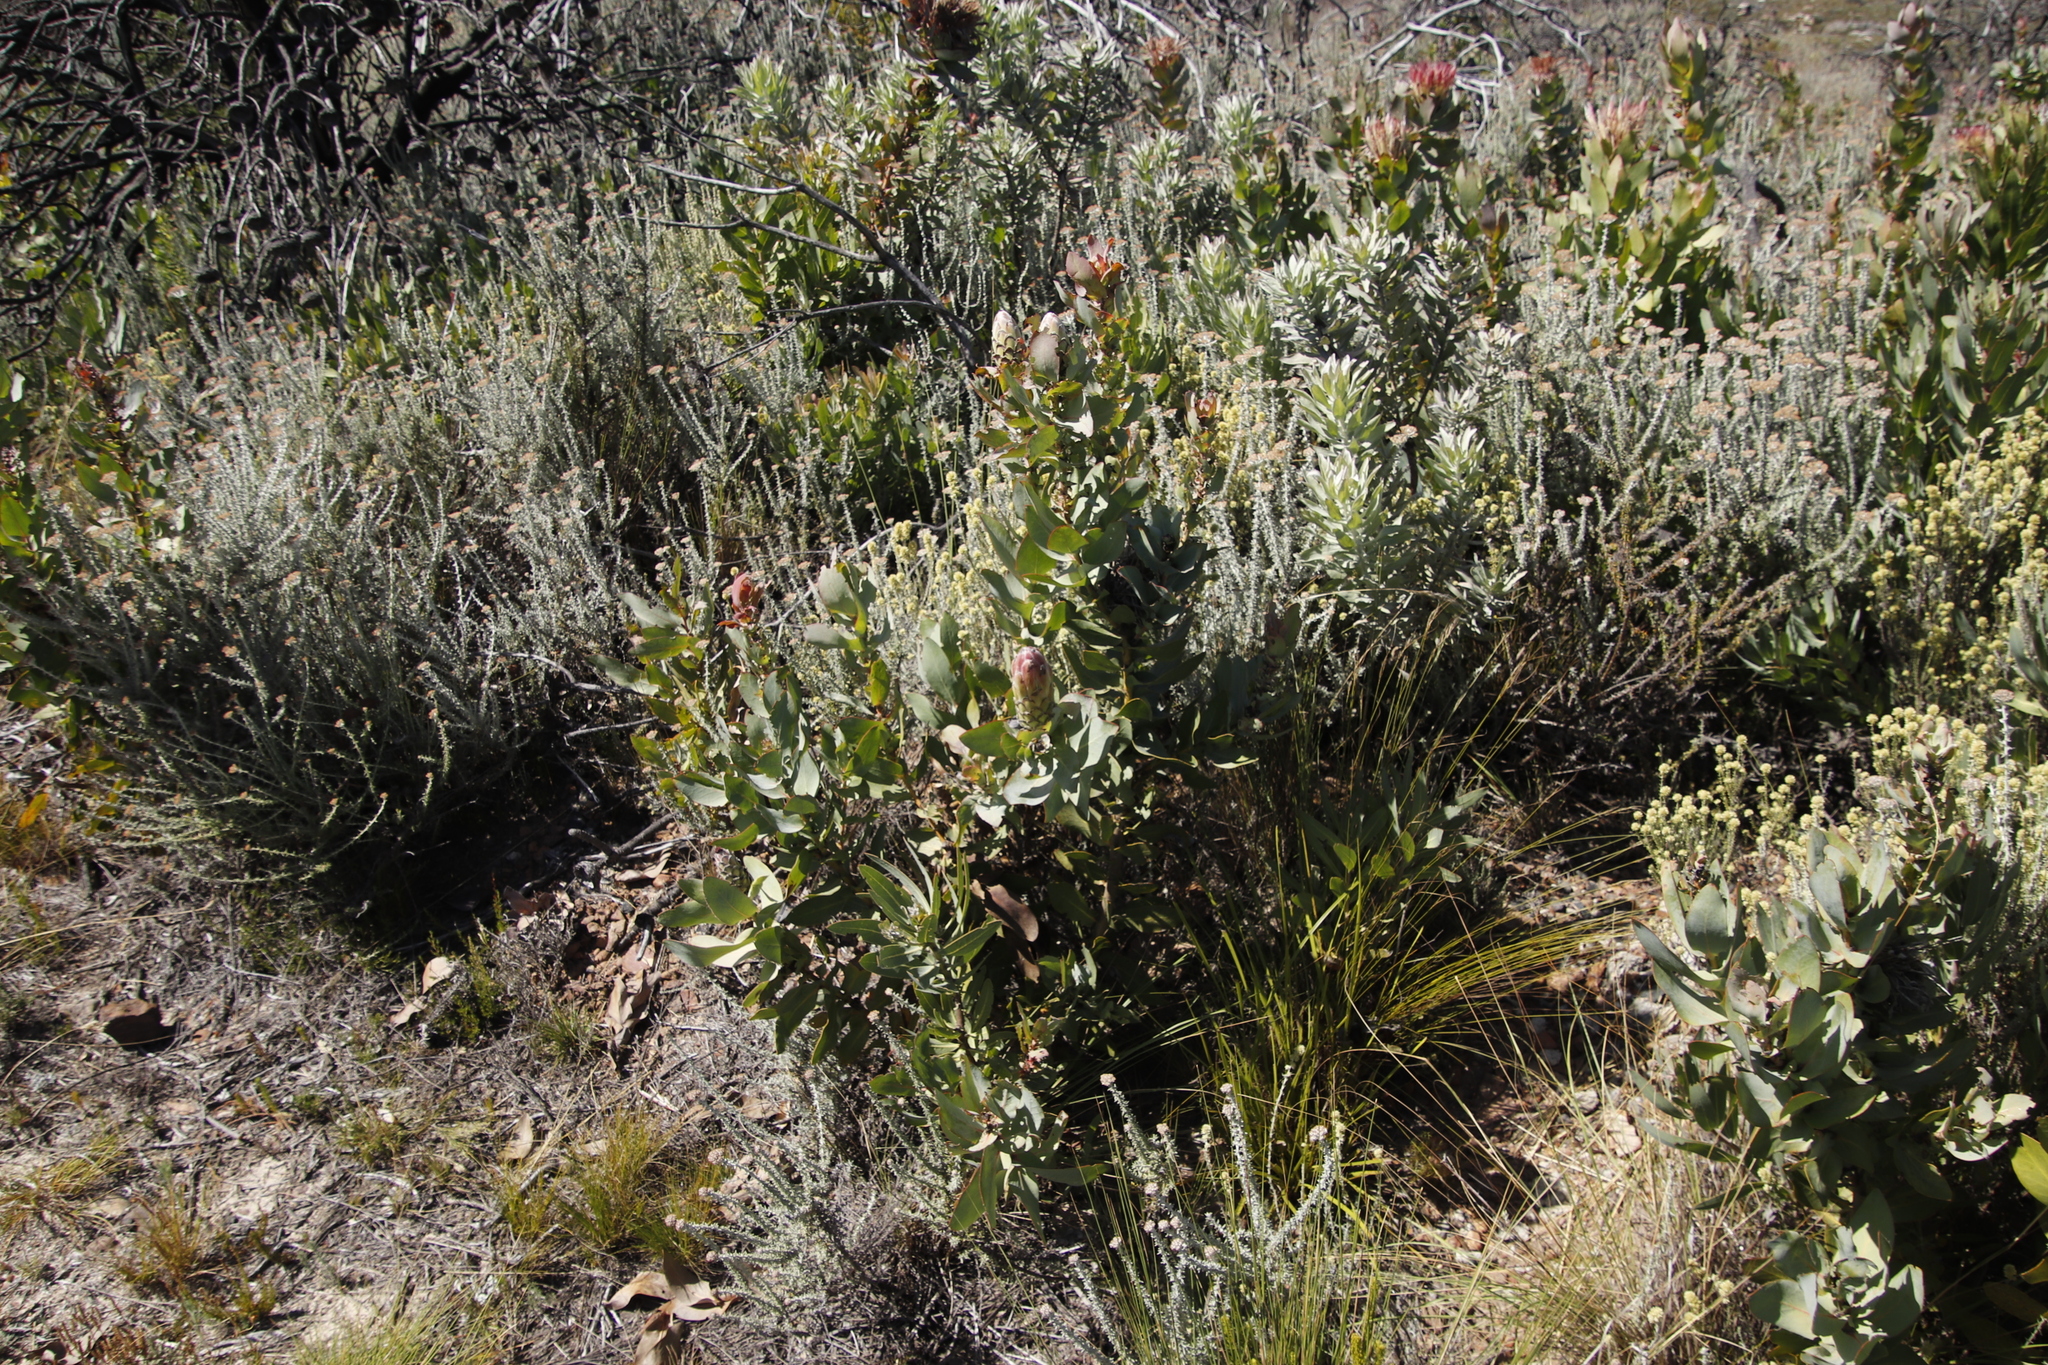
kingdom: Plantae
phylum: Tracheophyta
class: Magnoliopsida
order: Proteales
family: Proteaceae
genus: Protea
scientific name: Protea eximia
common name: Broad-leaved sugarbush
